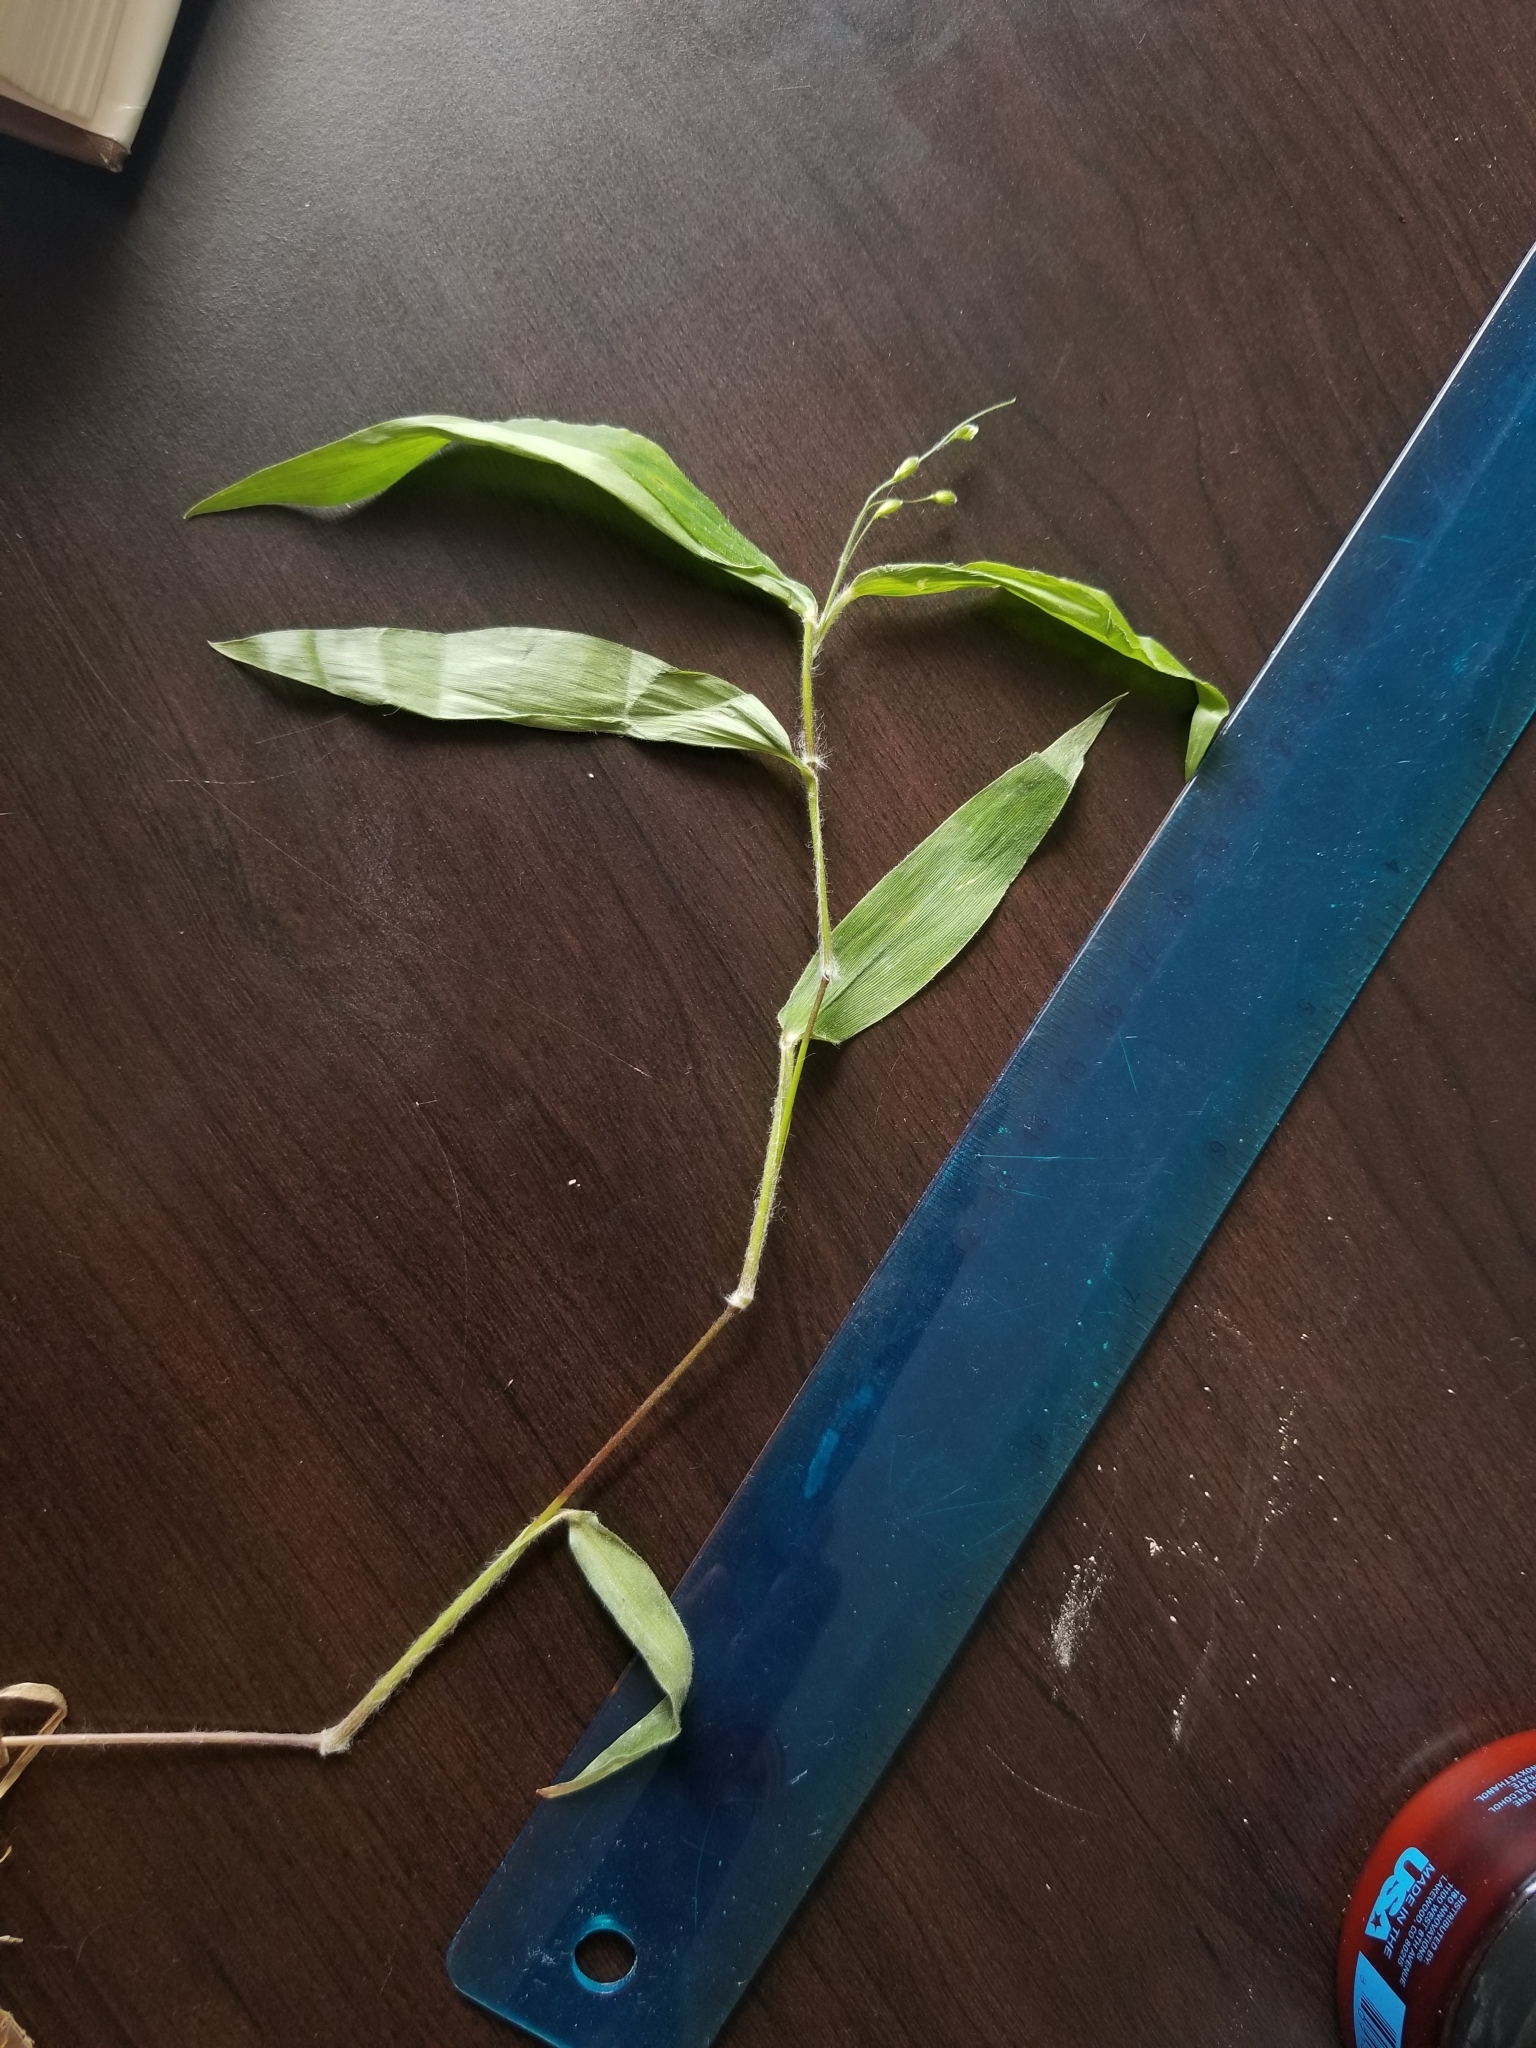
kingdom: Plantae
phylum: Tracheophyta
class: Liliopsida
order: Poales
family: Poaceae
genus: Dichanthelium
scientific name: Dichanthelium boscii
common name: Bosc's panic grass
